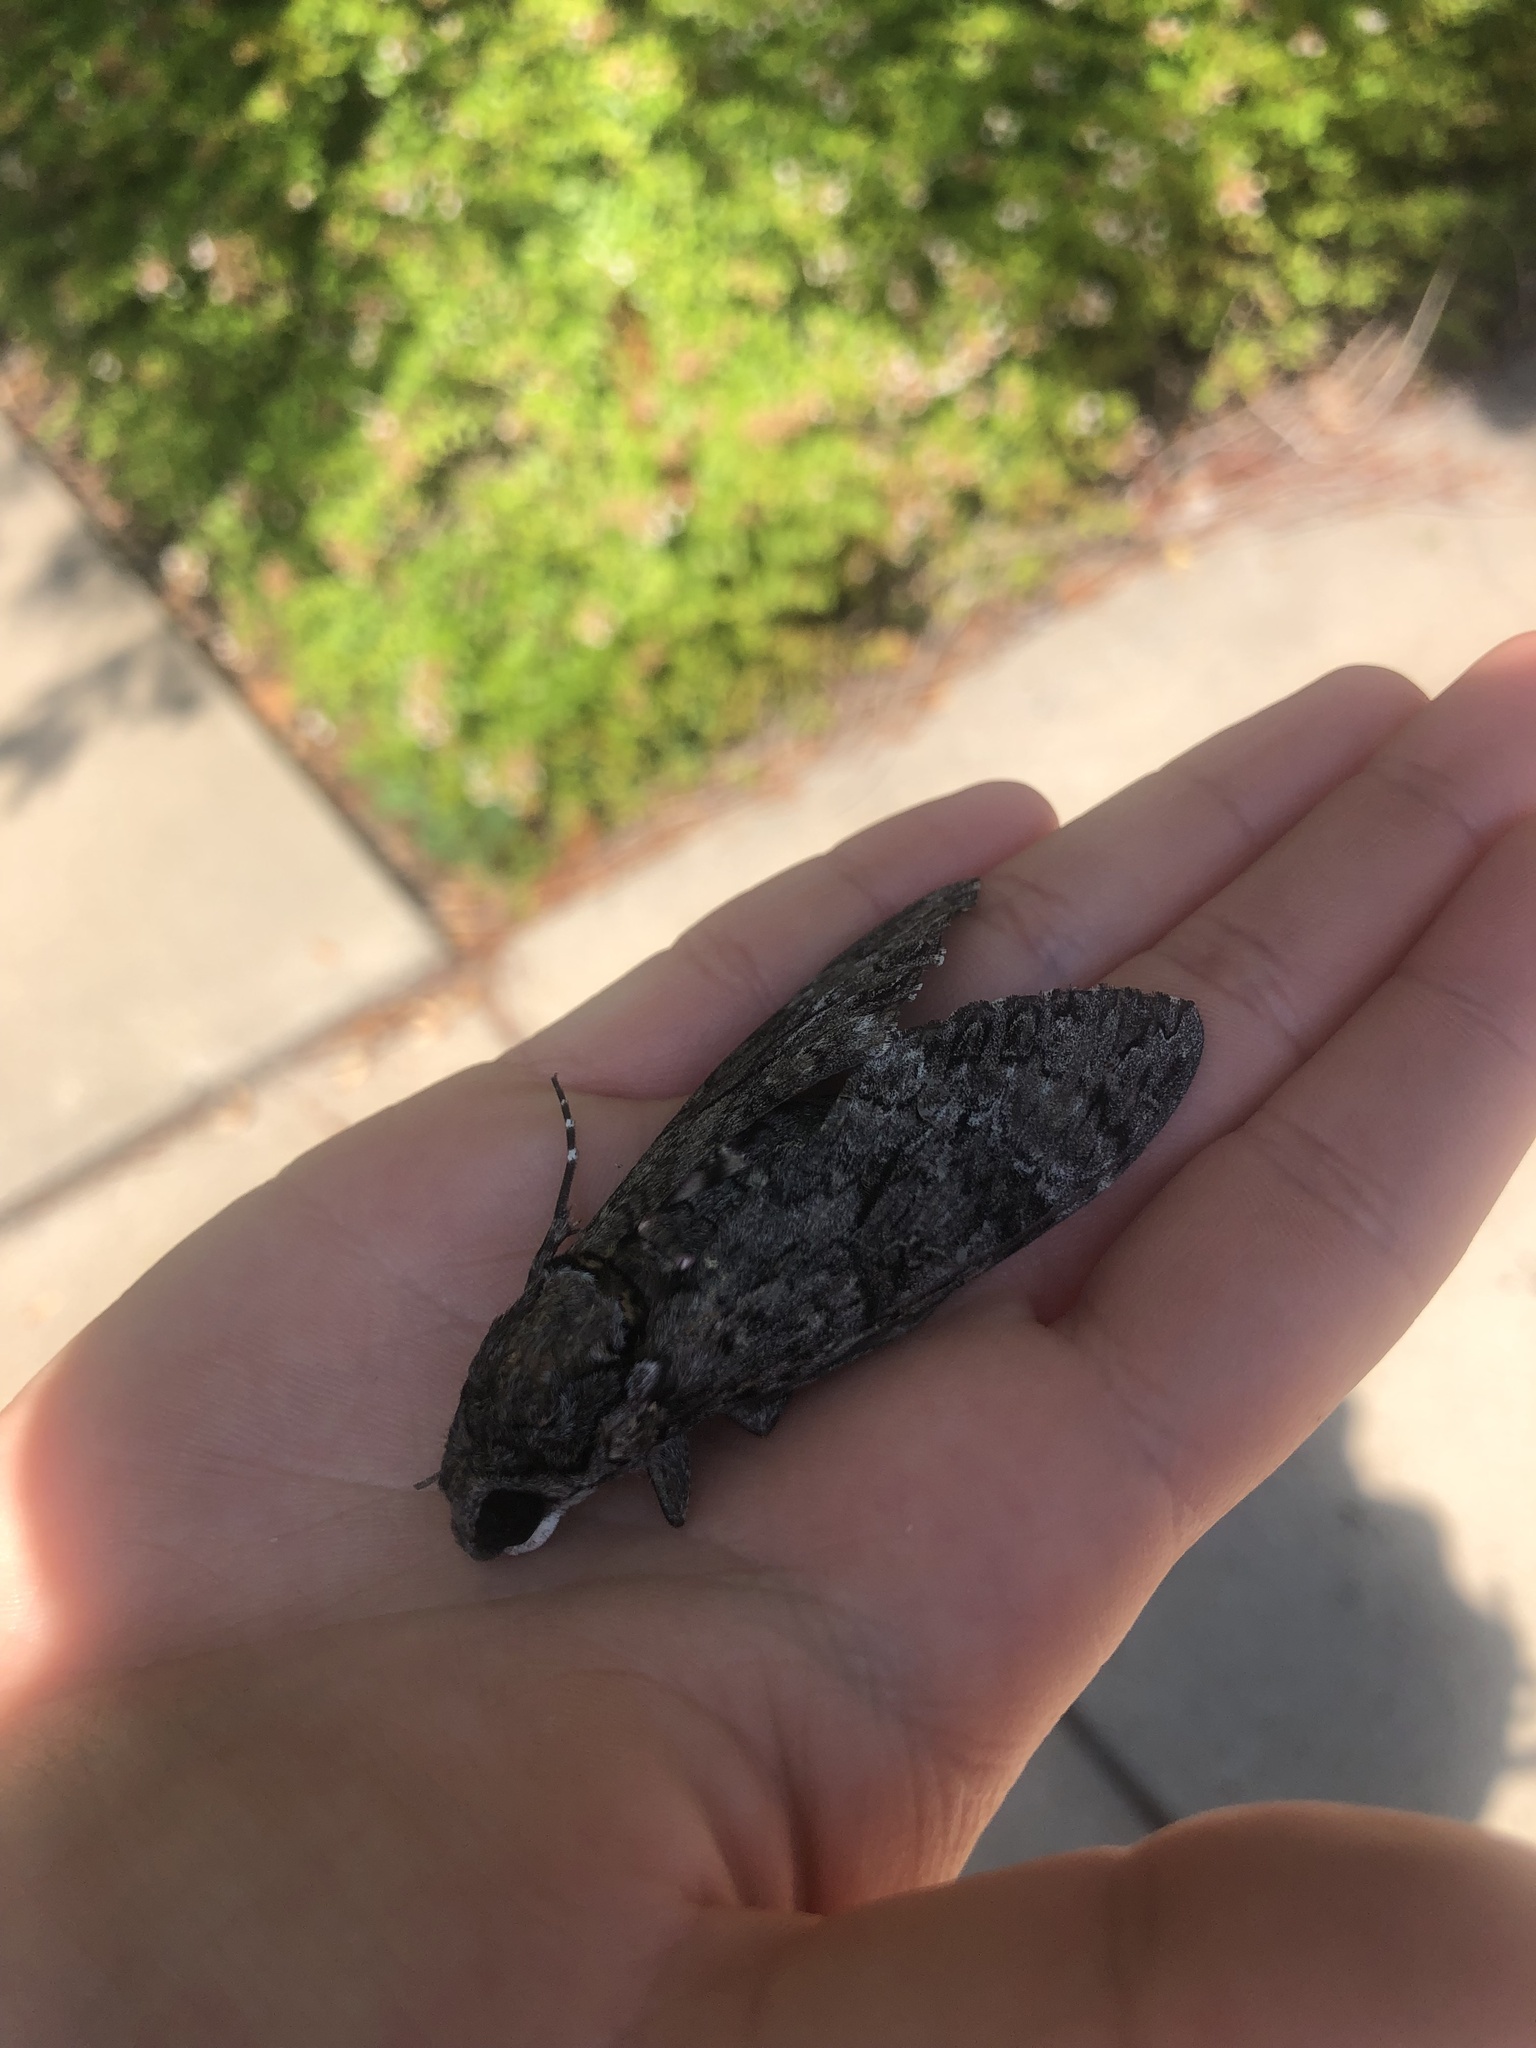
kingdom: Animalia
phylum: Arthropoda
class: Insecta
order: Lepidoptera
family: Sphingidae
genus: Agrius
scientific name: Agrius cingulata
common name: Pink-spotted hawkmoth
